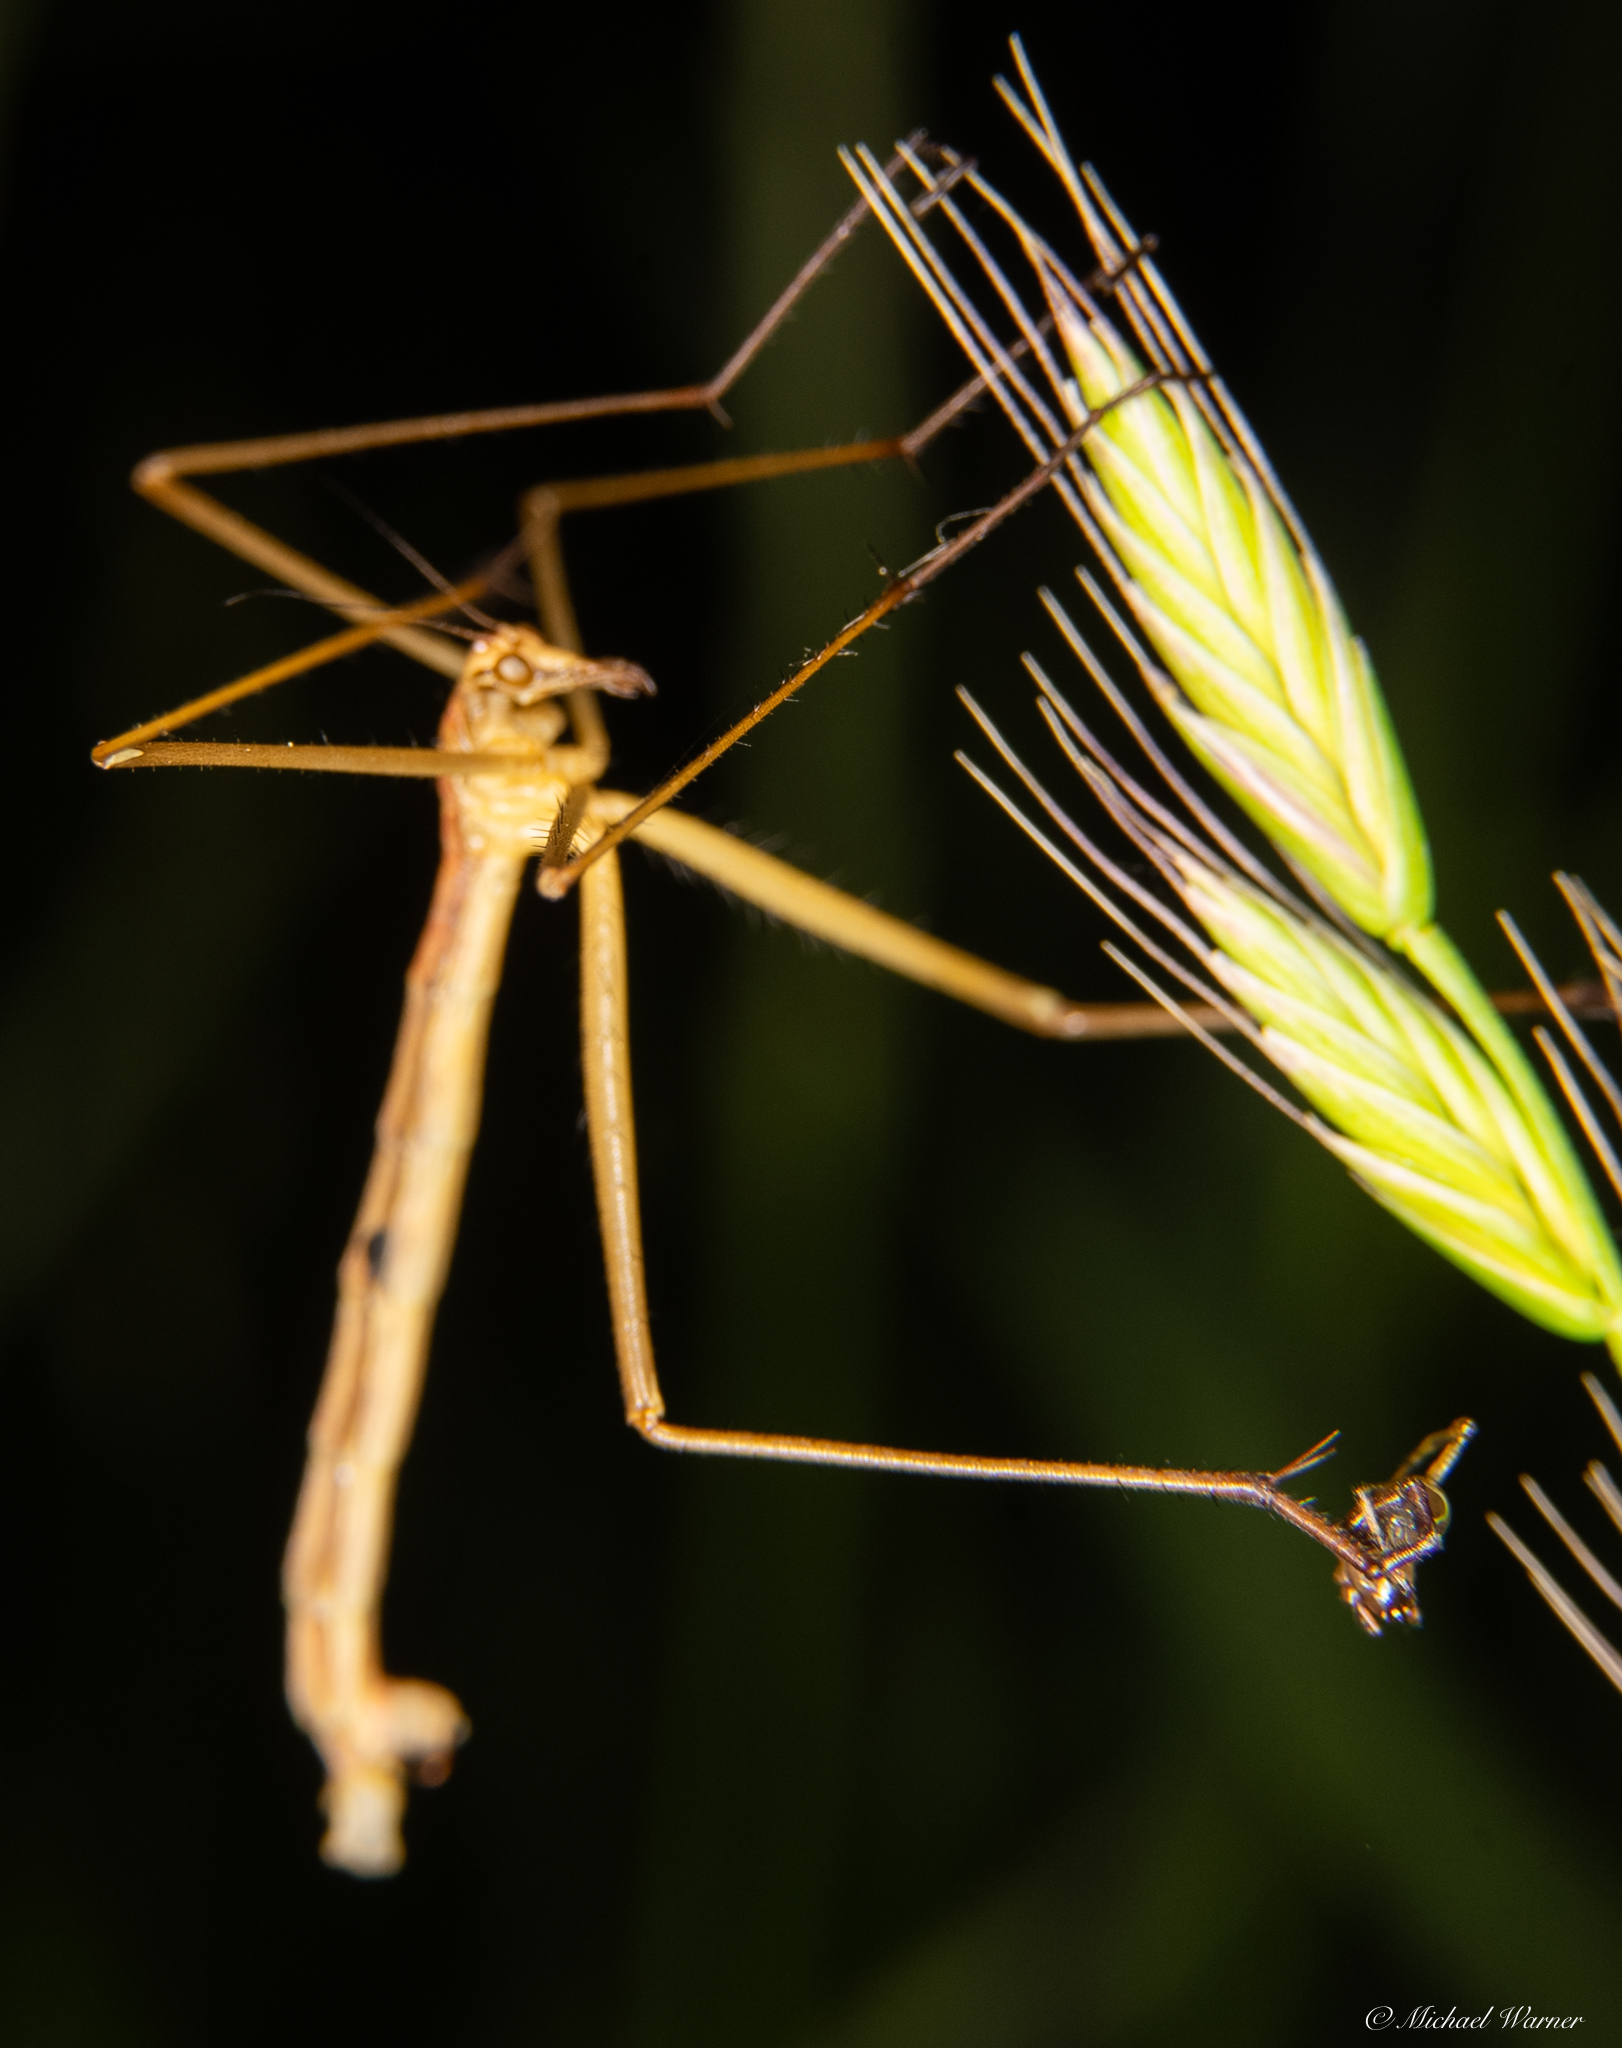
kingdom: Animalia
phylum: Arthropoda
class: Insecta
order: Mecoptera
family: Bittacidae
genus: Apterobittacus
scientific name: Apterobittacus apterus
